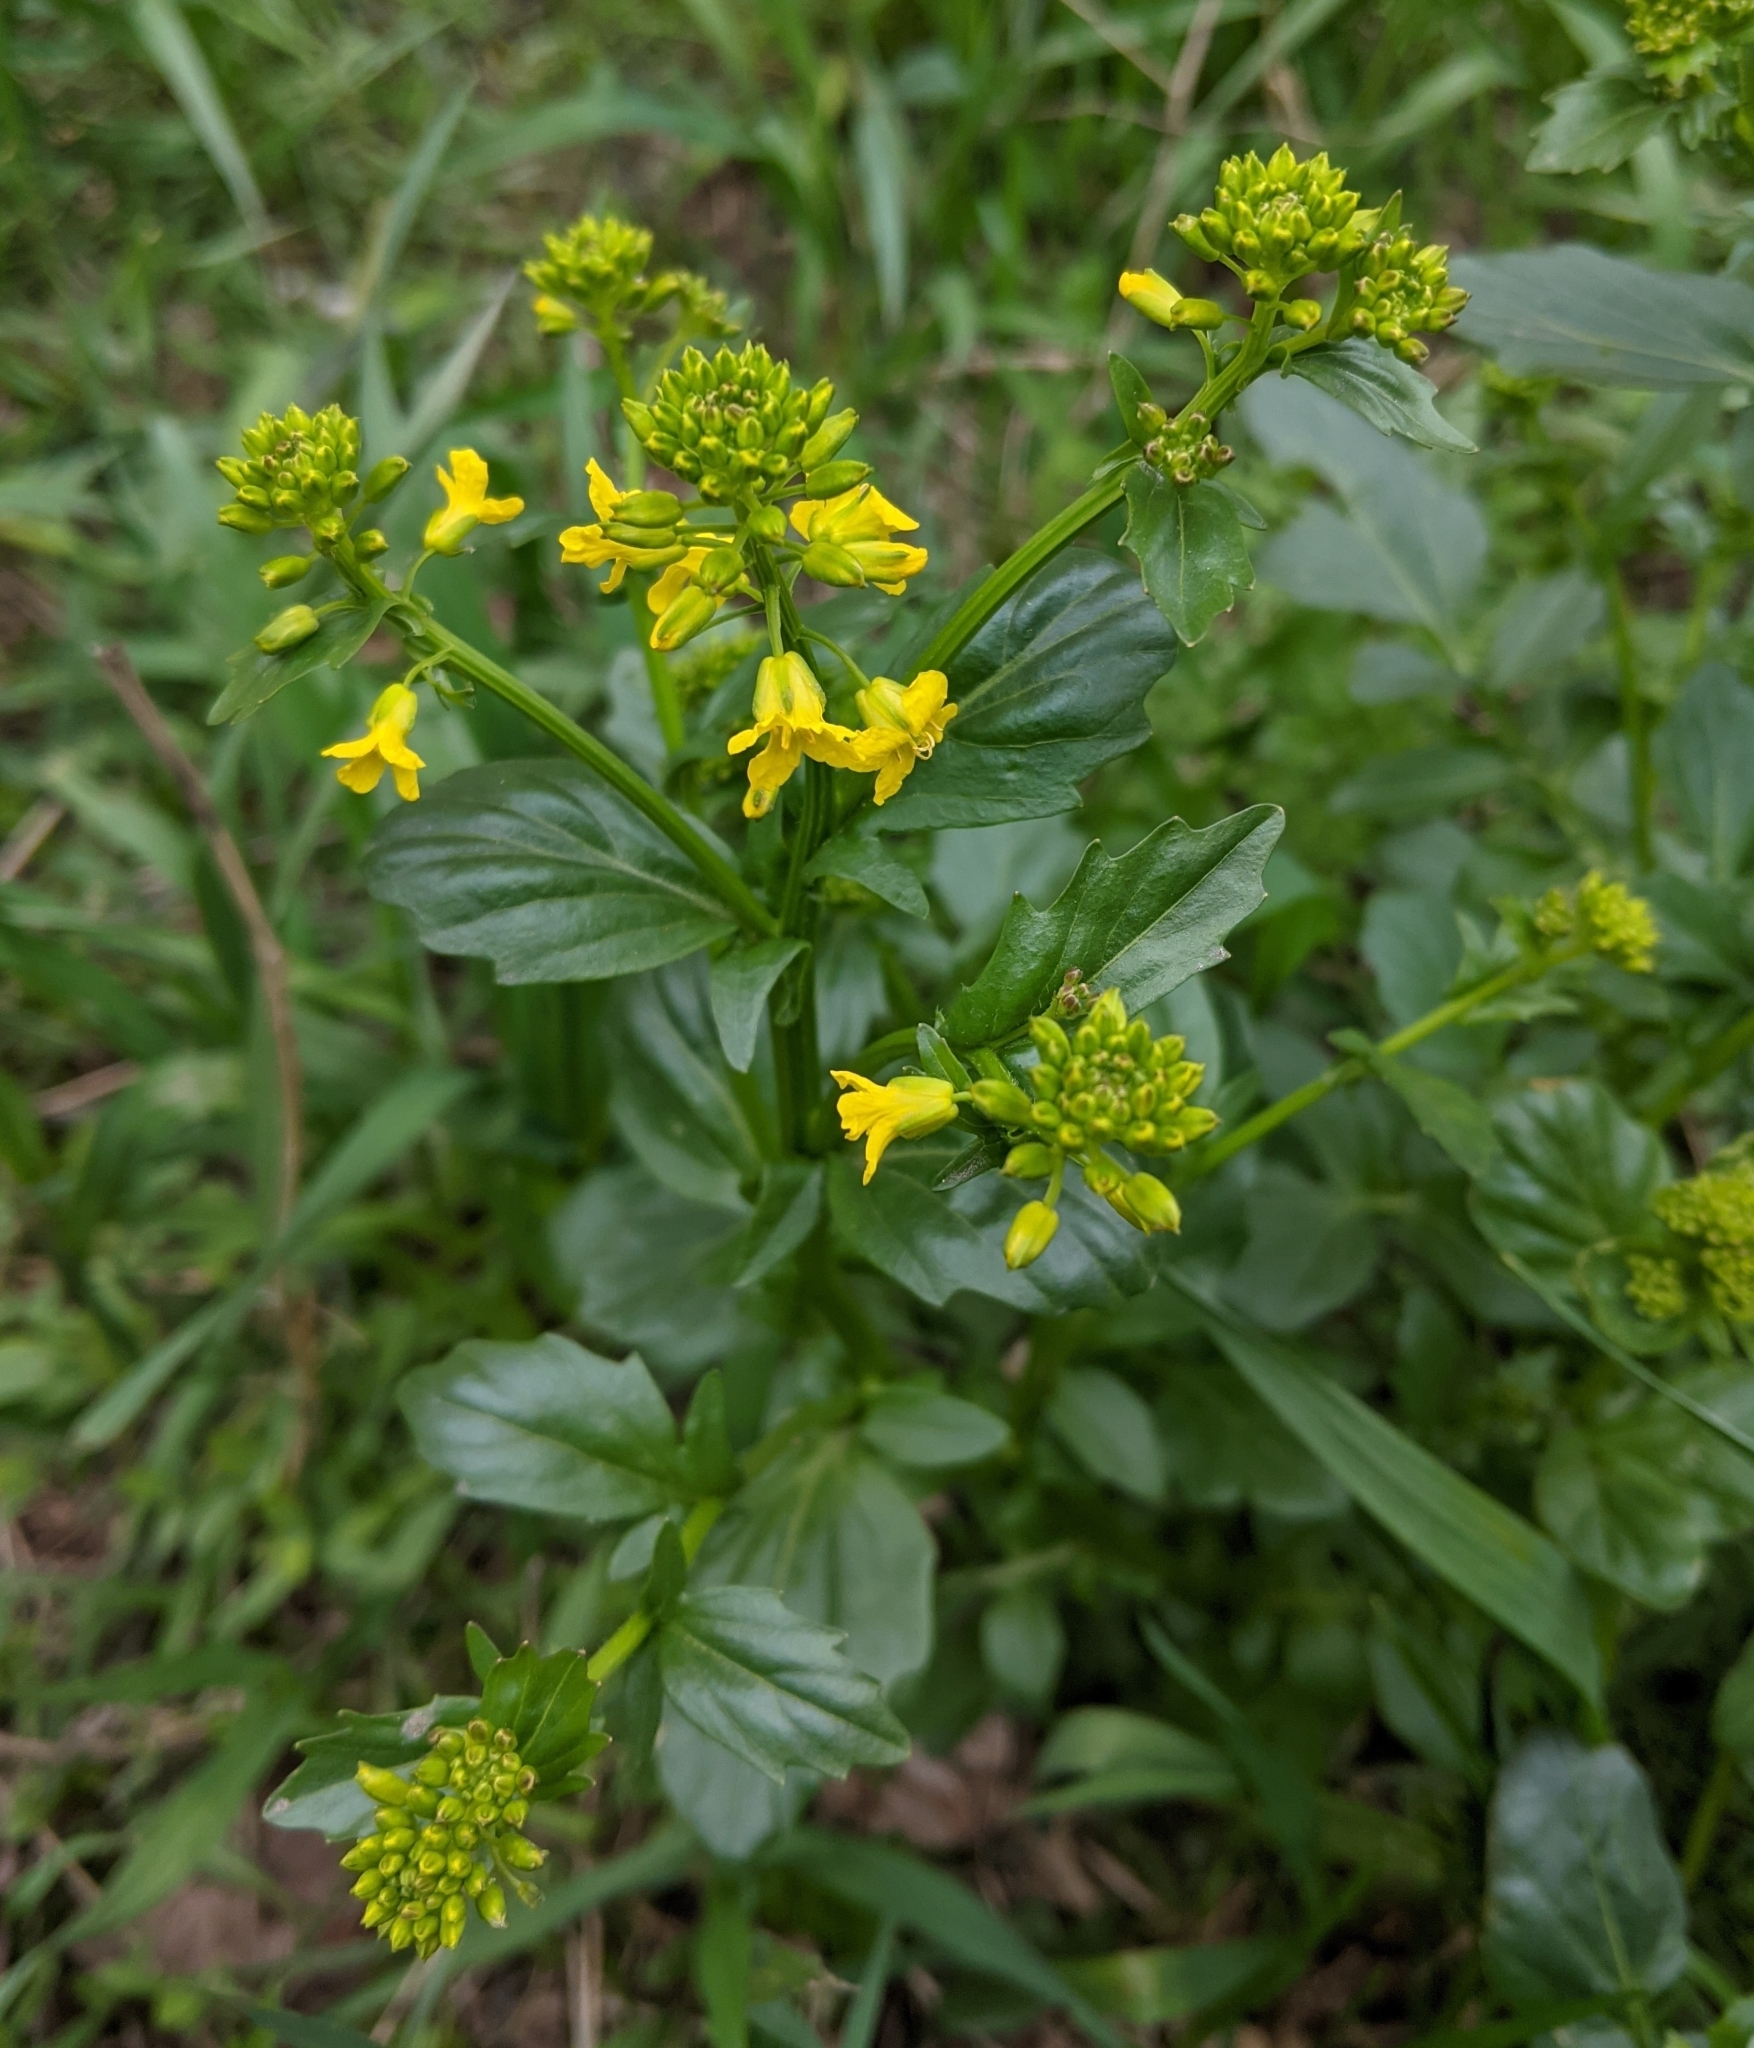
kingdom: Plantae
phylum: Tracheophyta
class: Magnoliopsida
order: Brassicales
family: Brassicaceae
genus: Barbarea
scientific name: Barbarea vulgaris
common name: Cressy-greens
